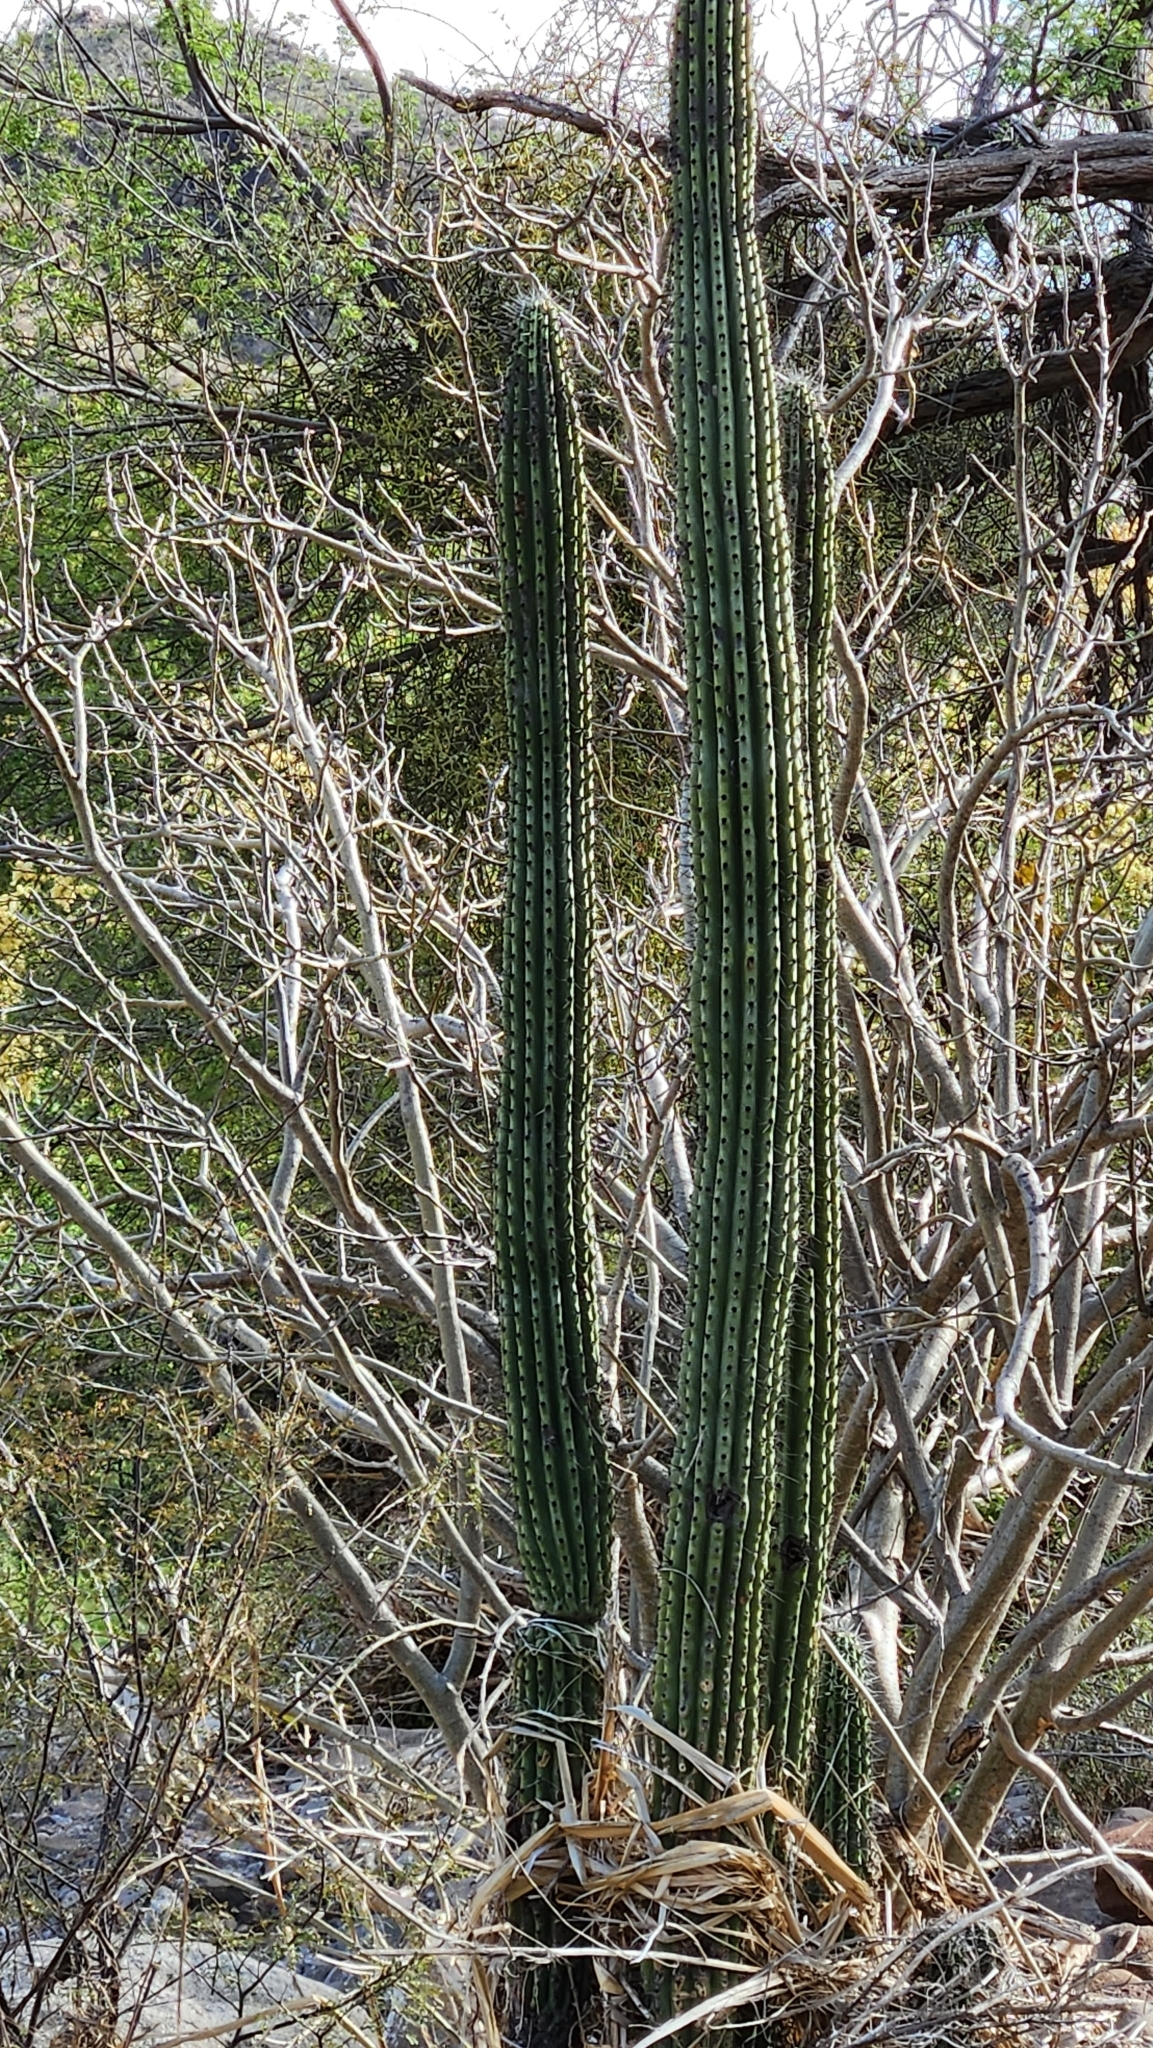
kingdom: Plantae
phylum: Tracheophyta
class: Magnoliopsida
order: Caryophyllales
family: Cactaceae
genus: Stenocereus
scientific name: Stenocereus thurberi
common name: Organ pipe cactus
